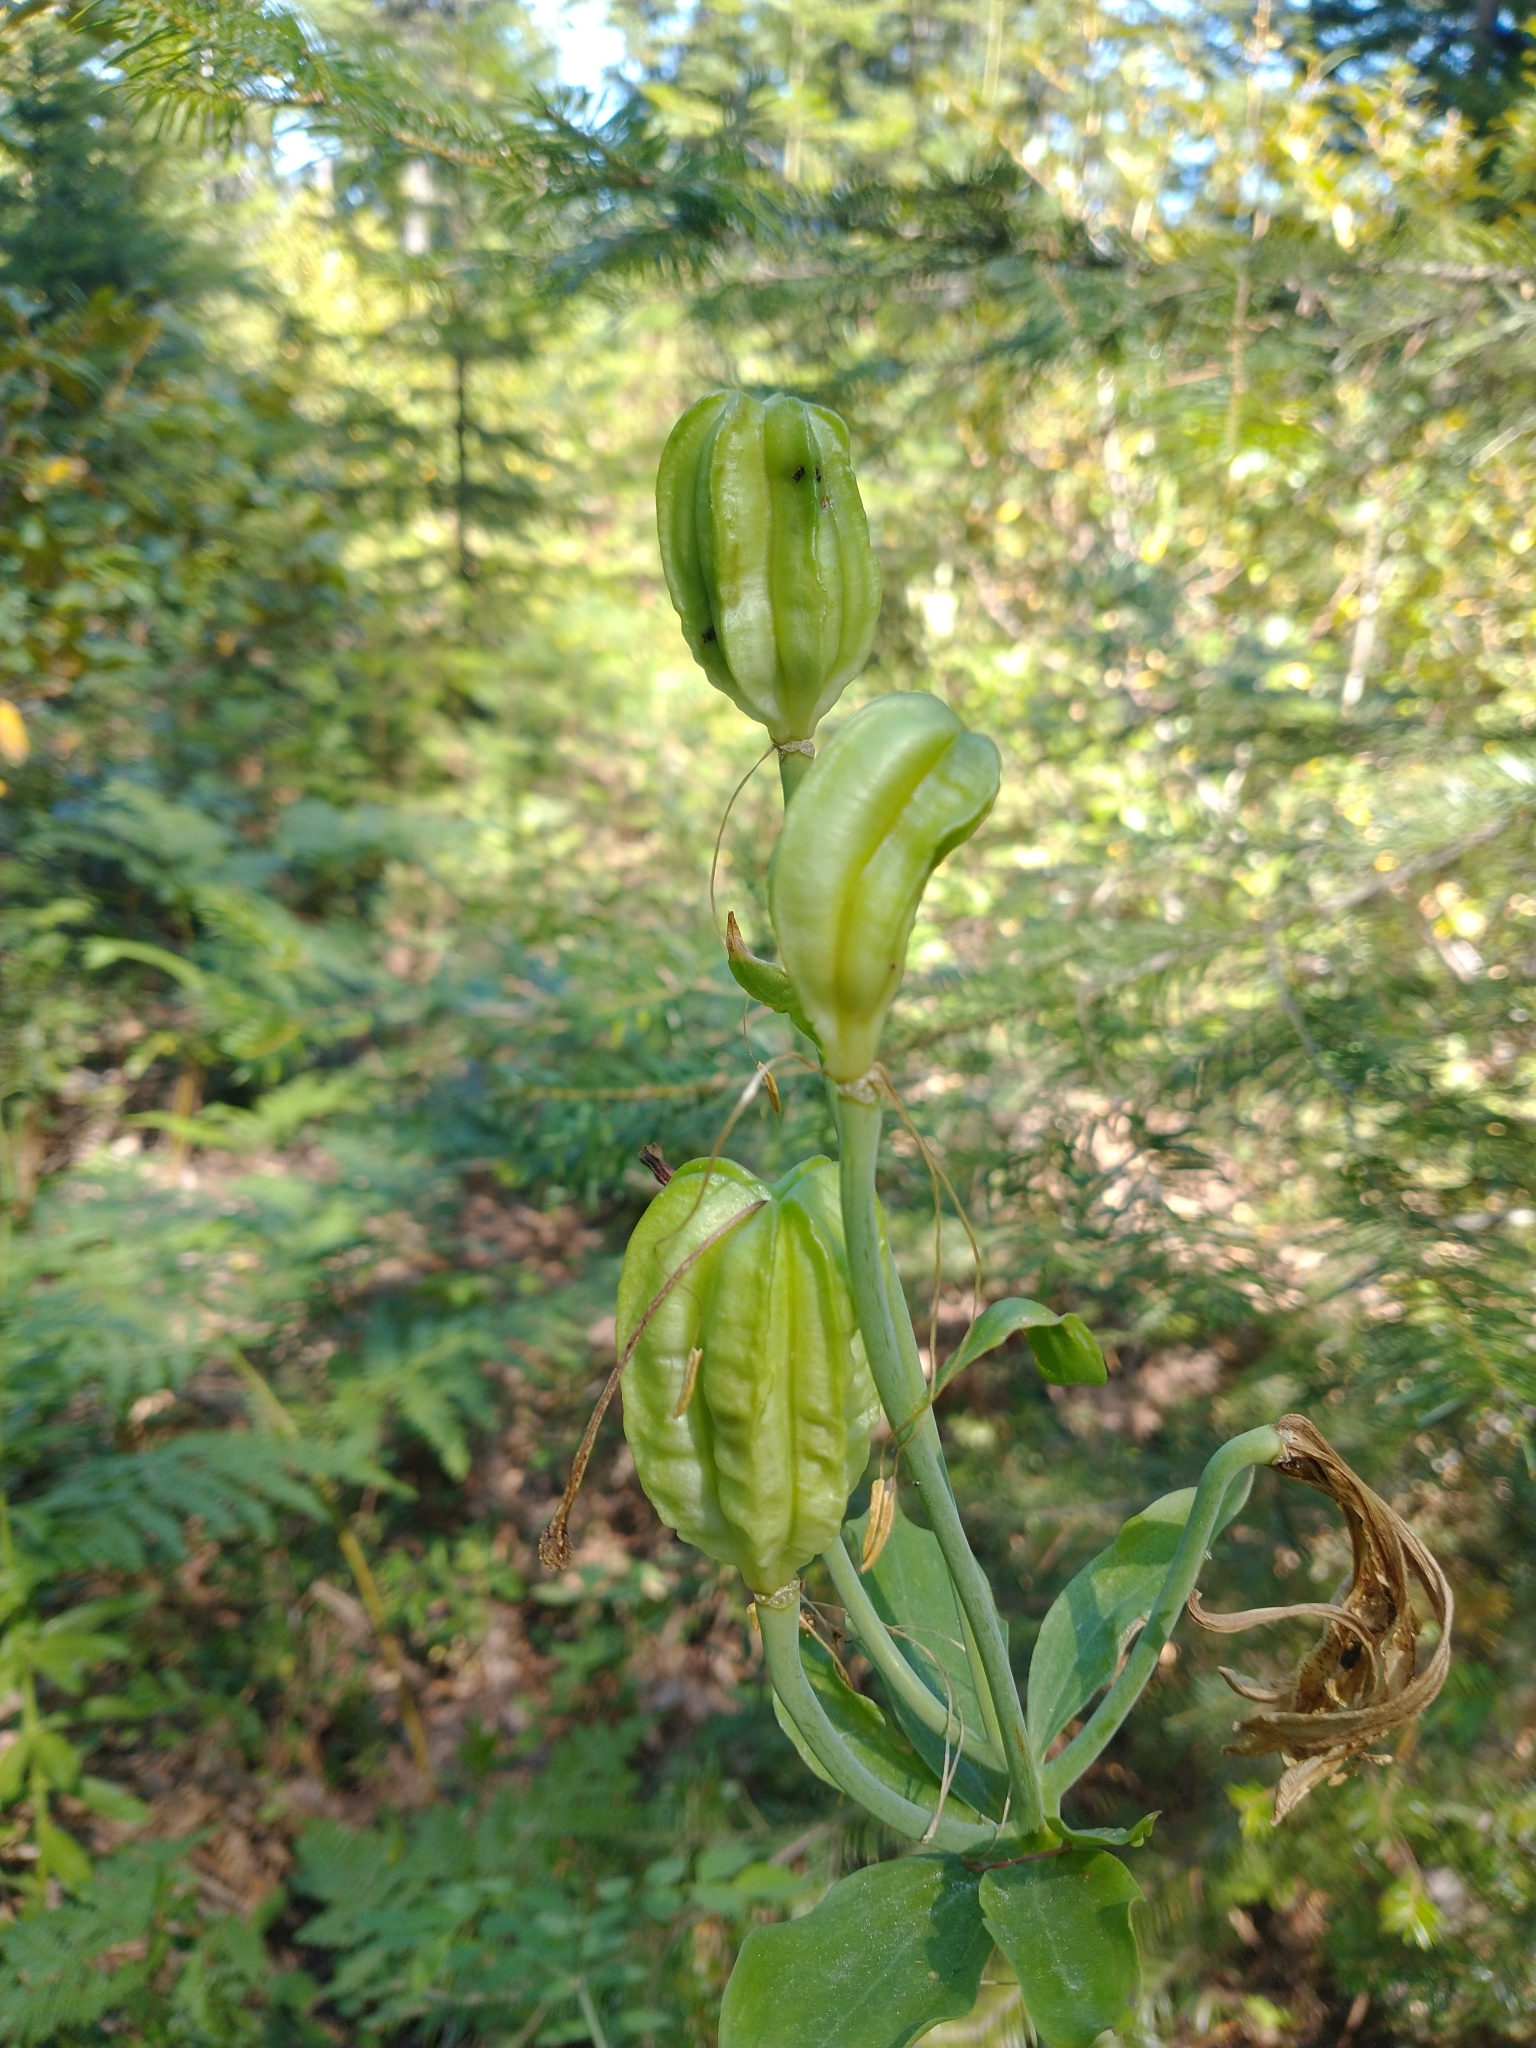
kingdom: Plantae
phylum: Tracheophyta
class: Liliopsida
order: Liliales
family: Liliaceae
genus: Lilium
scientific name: Lilium columbianum
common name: Columbia lily
